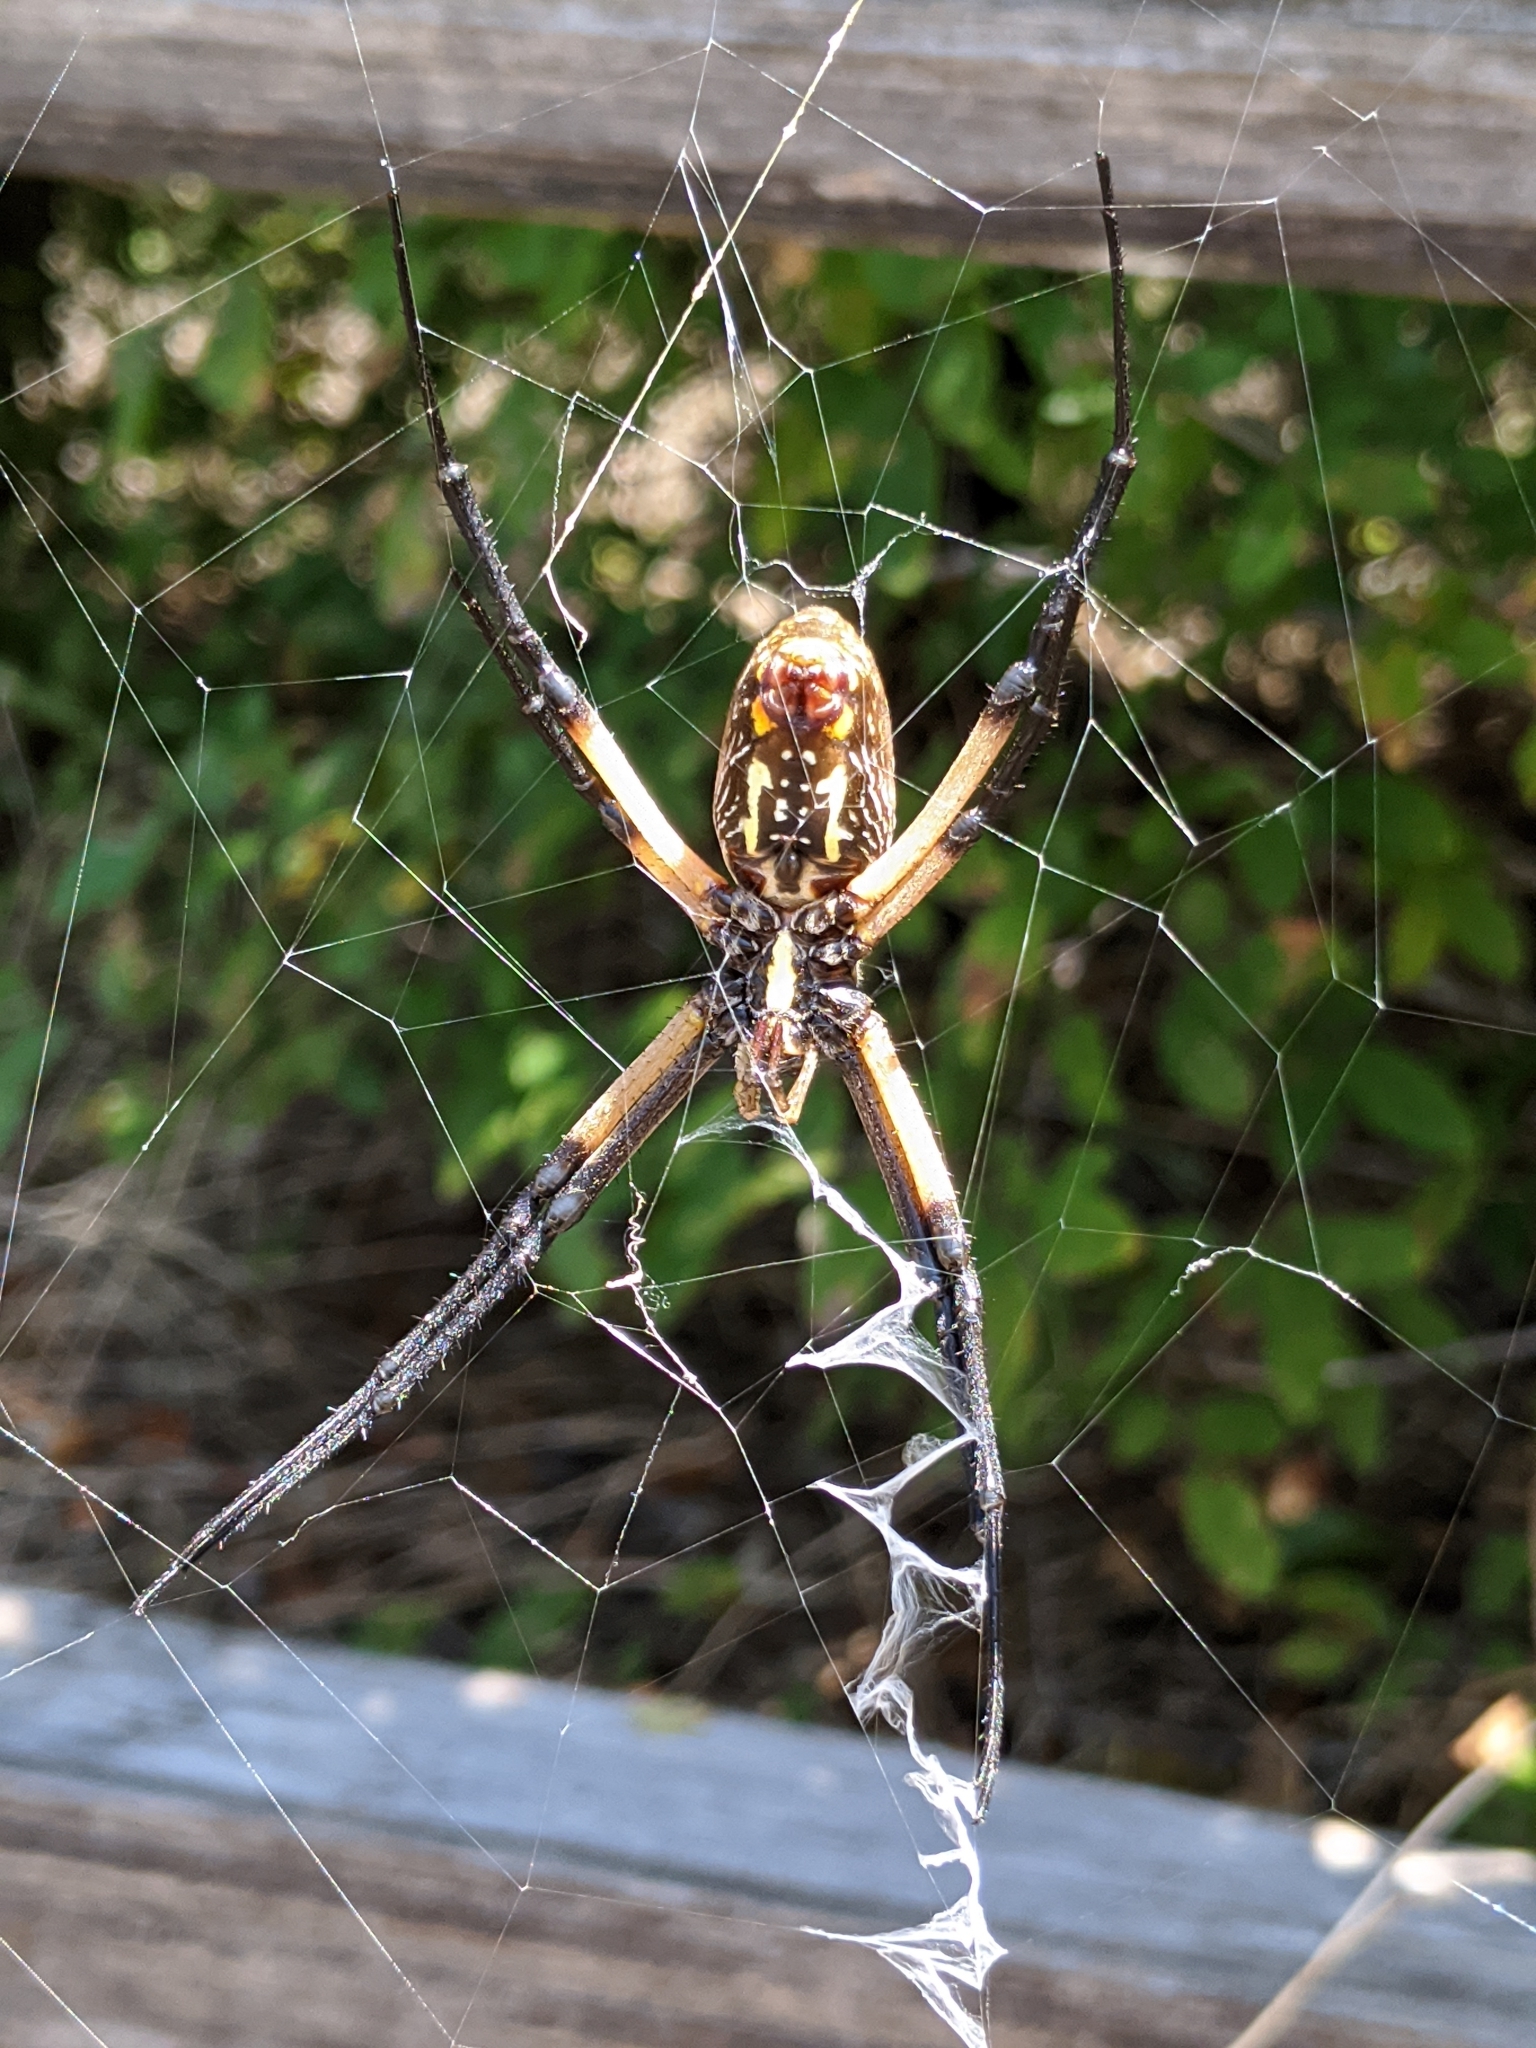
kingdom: Animalia
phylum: Arthropoda
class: Arachnida
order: Araneae
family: Araneidae
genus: Argiope
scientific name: Argiope aurantia
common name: Orb weavers
